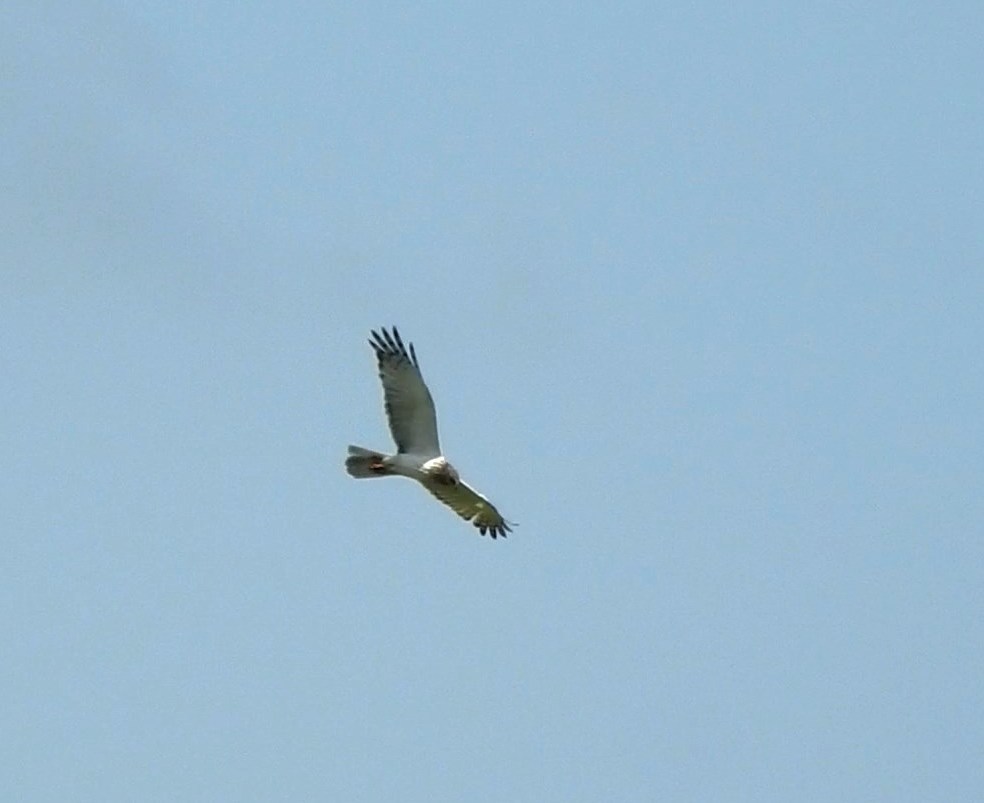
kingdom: Animalia
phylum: Chordata
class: Aves
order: Accipitriformes
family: Accipitridae
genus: Circus
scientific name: Circus spilonotus
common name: Eastern marsh-harrier
